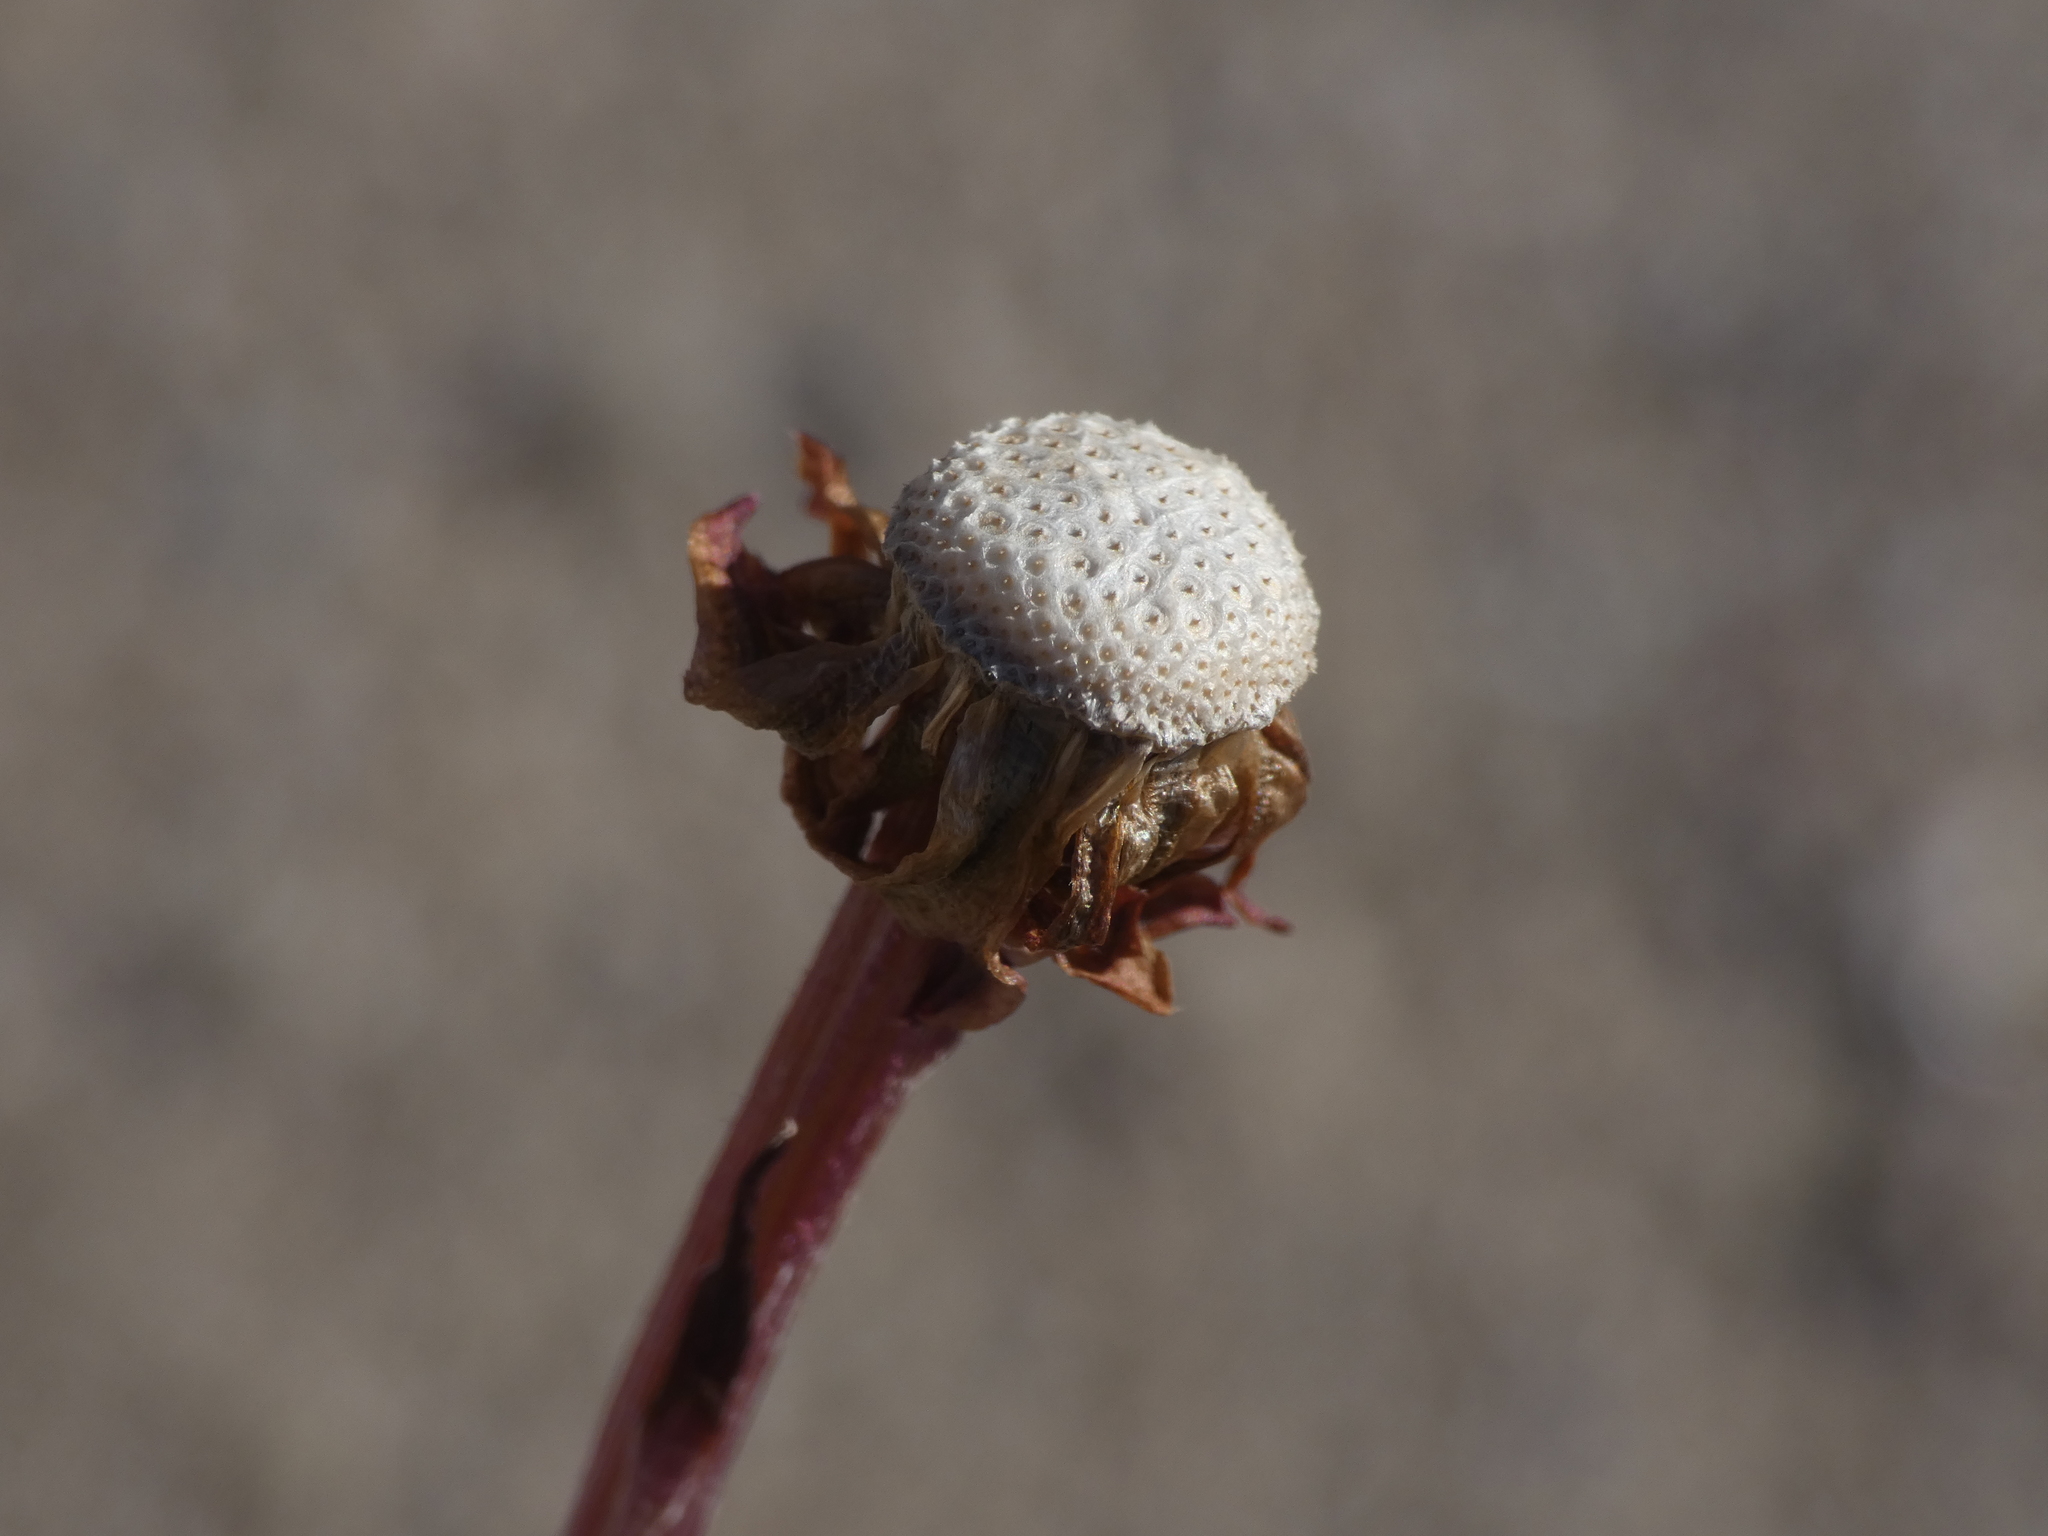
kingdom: Plantae
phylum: Tracheophyta
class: Magnoliopsida
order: Asterales
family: Asteraceae
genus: Tussilago
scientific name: Tussilago farfara
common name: Coltsfoot
